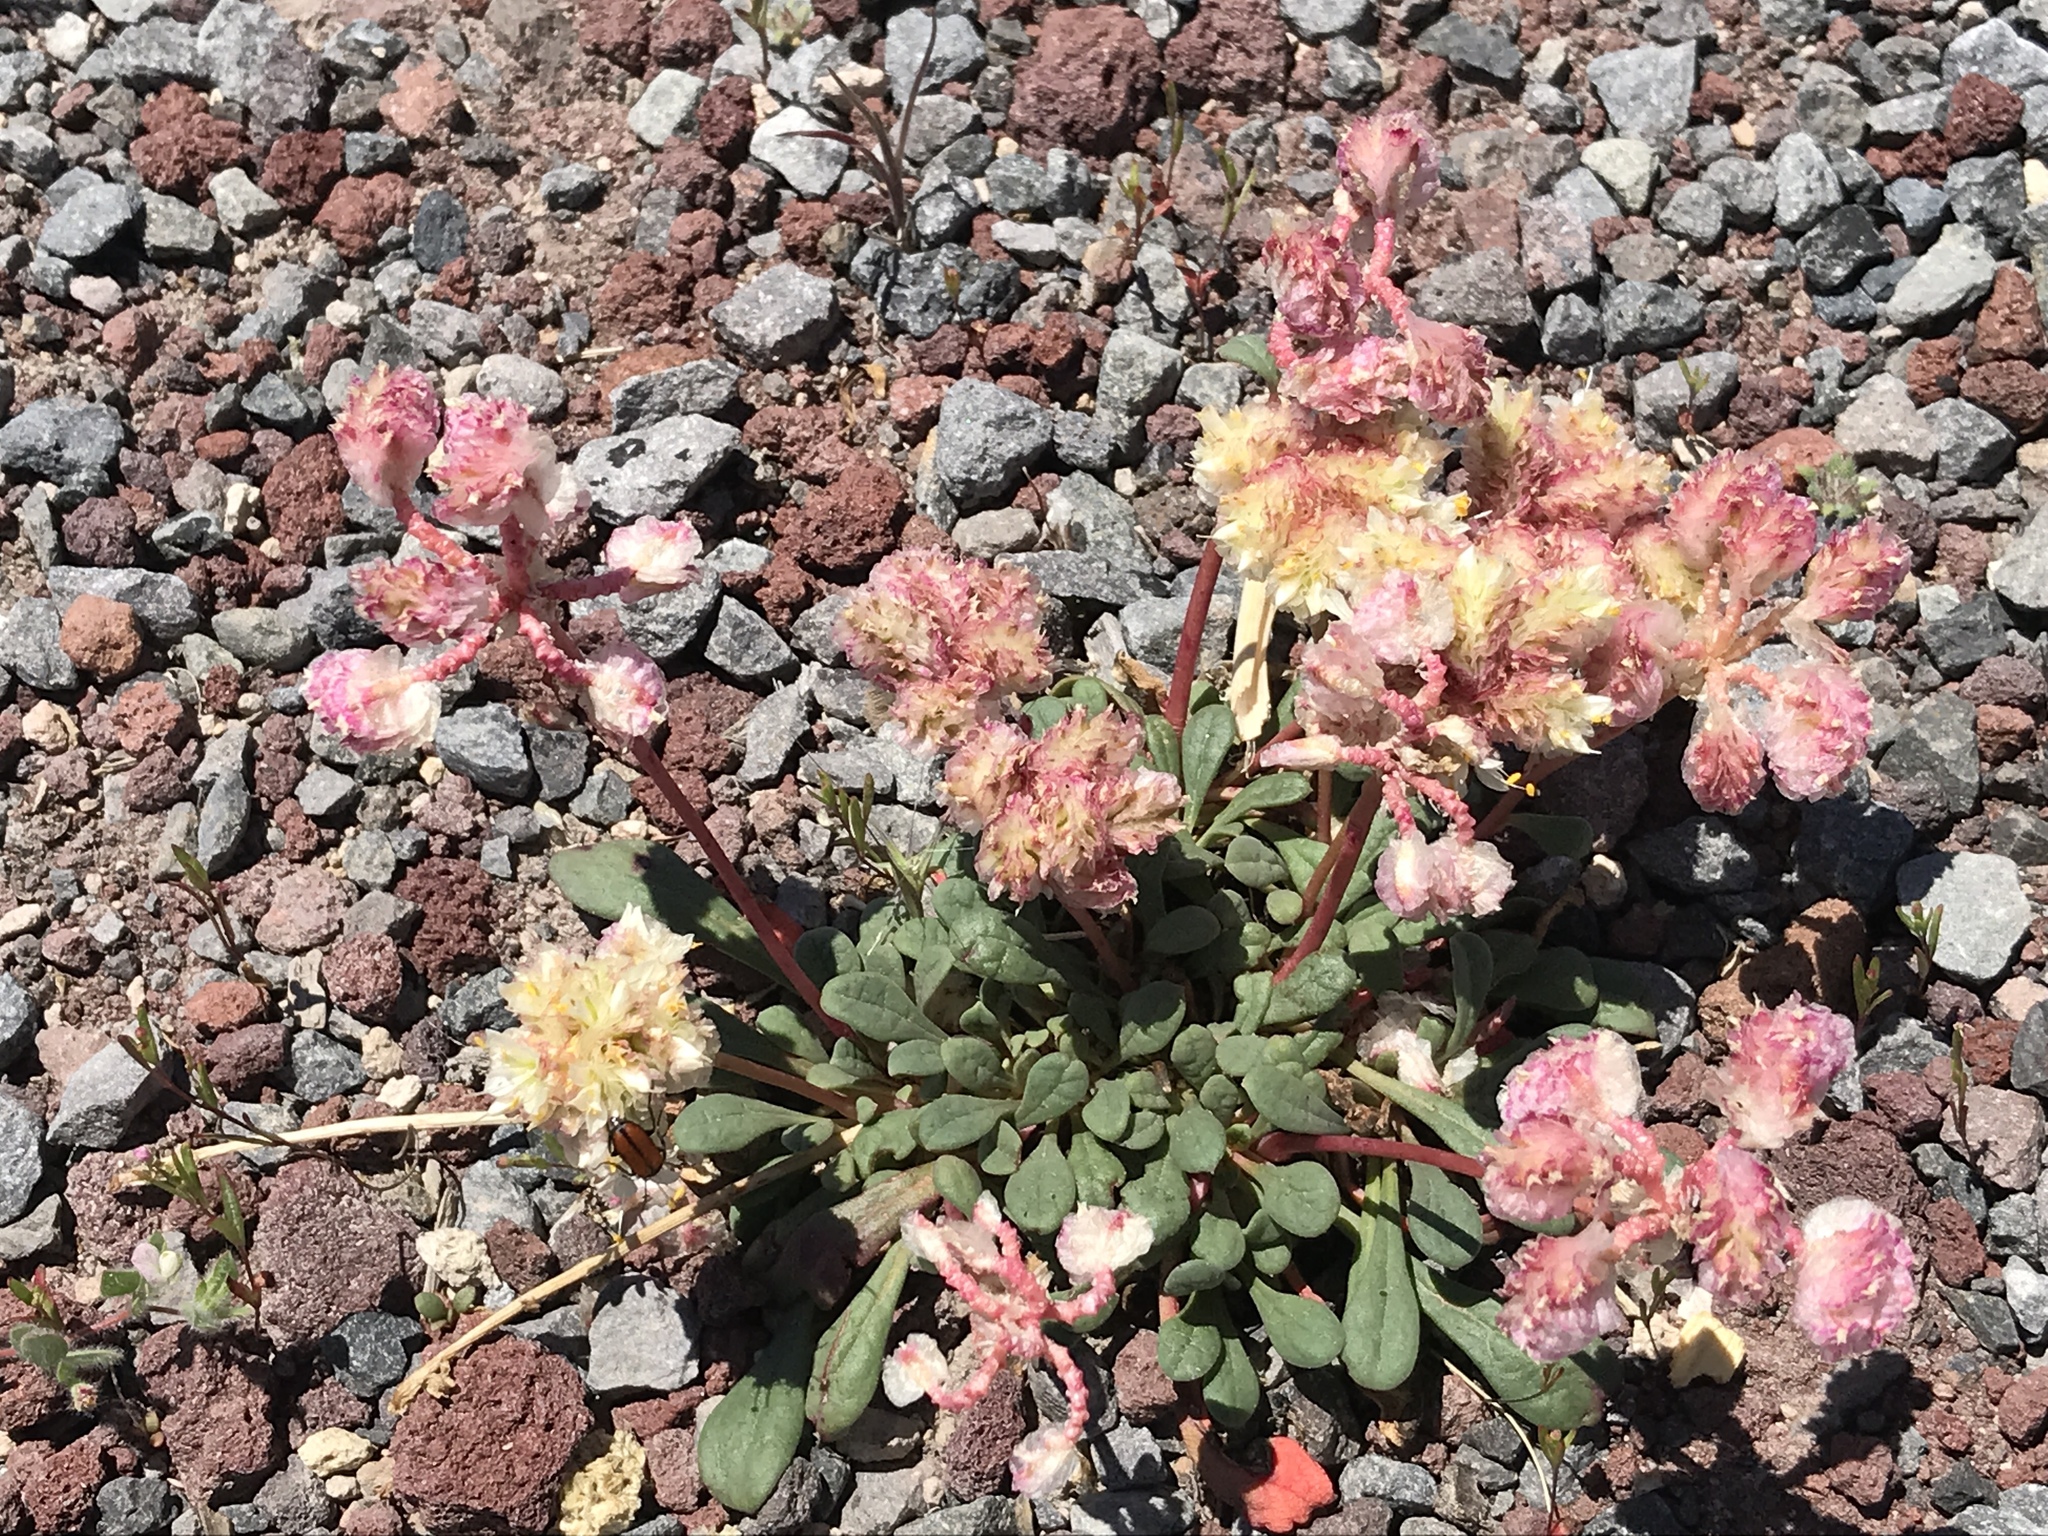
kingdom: Plantae
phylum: Tracheophyta
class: Magnoliopsida
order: Caryophyllales
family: Montiaceae
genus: Calyptridium
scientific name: Calyptridium umbellatum
